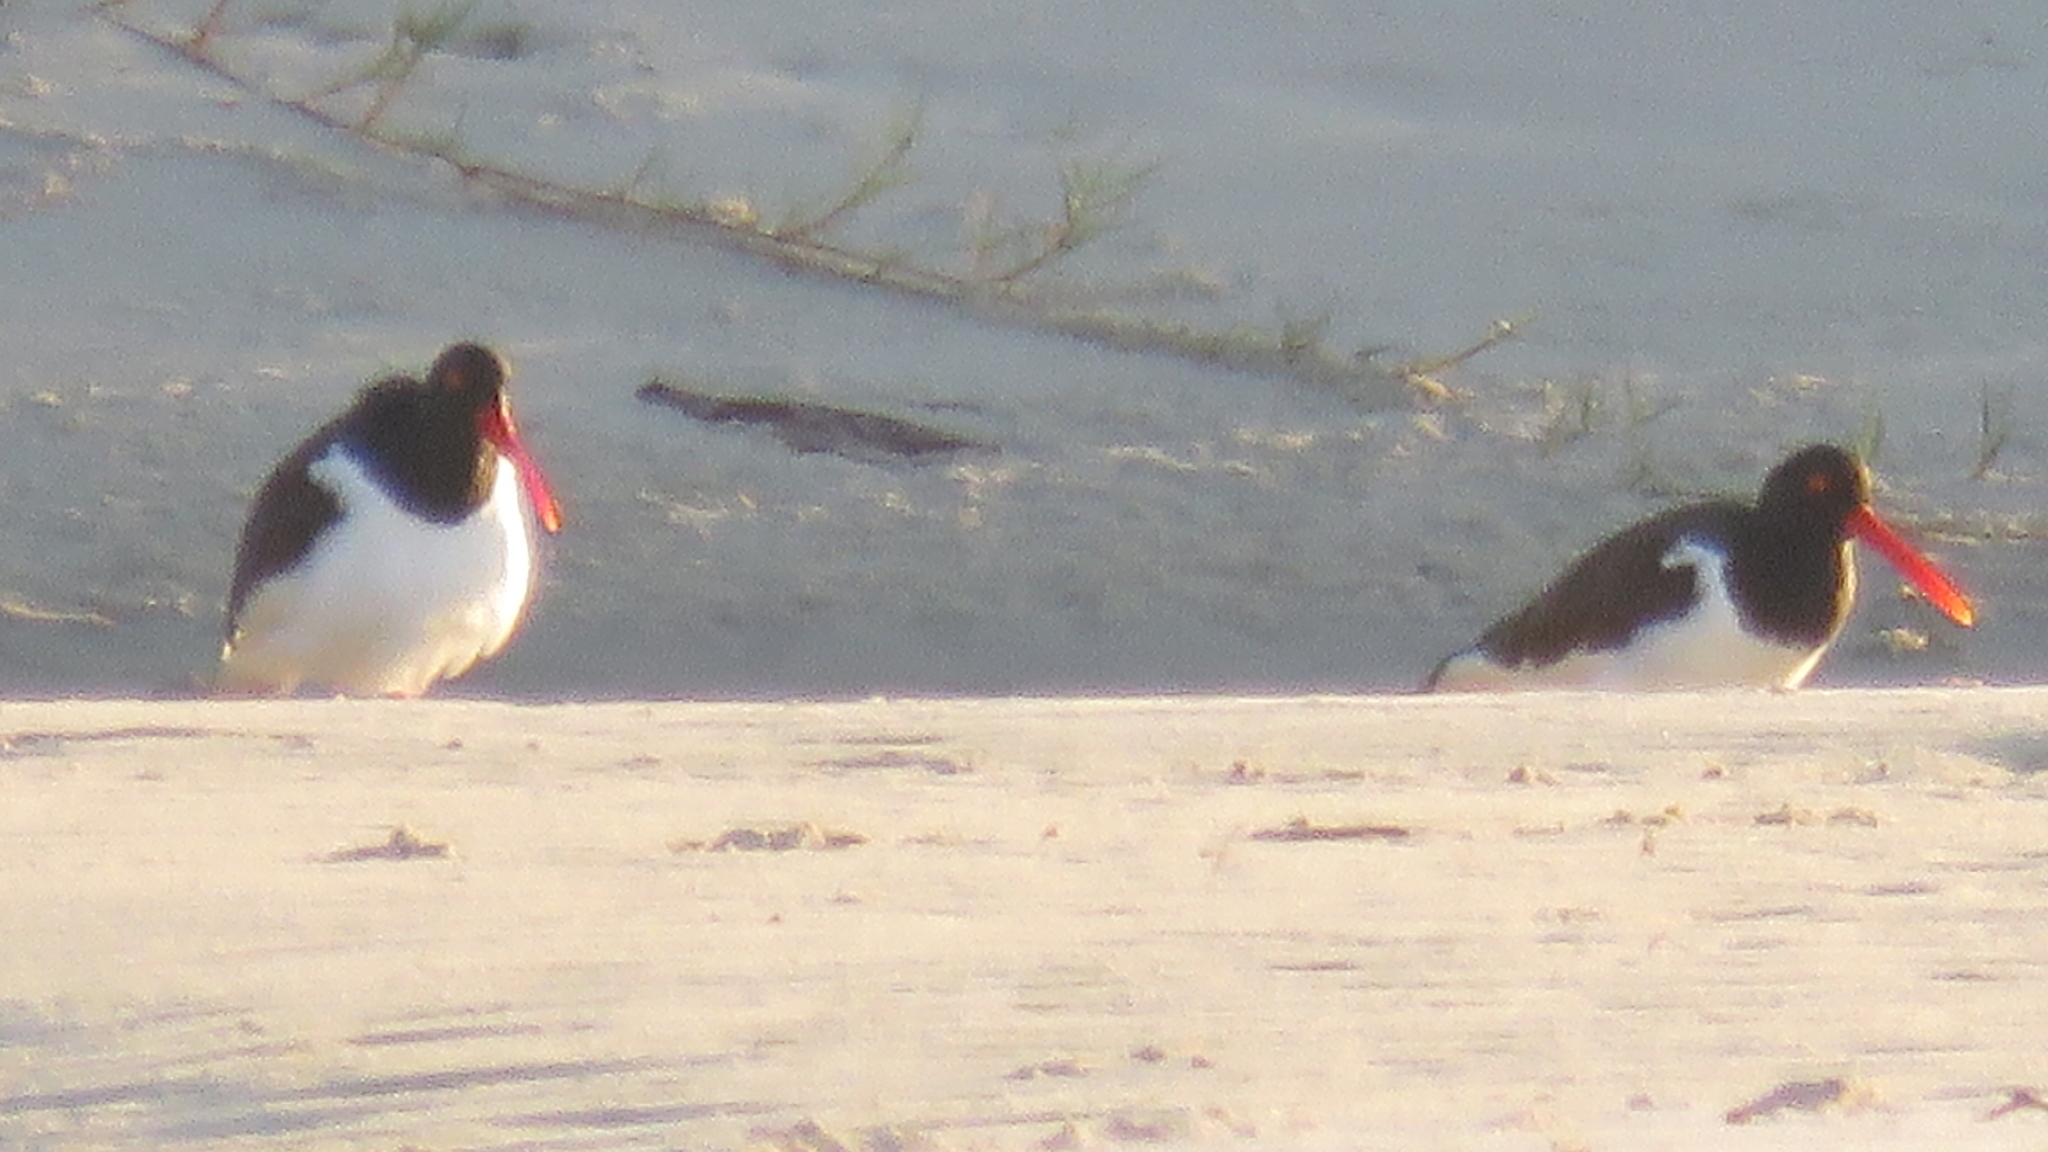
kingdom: Animalia
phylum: Chordata
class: Aves
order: Charadriiformes
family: Haematopodidae
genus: Haematopus
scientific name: Haematopus palliatus
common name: American oystercatcher
